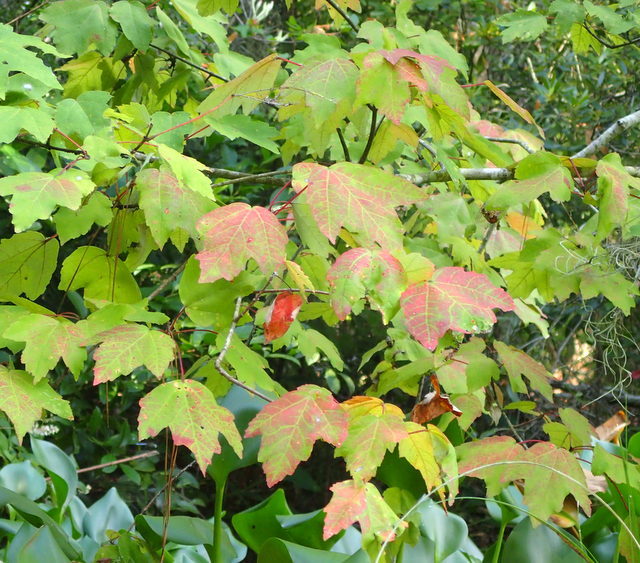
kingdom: Plantae
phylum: Tracheophyta
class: Magnoliopsida
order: Sapindales
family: Sapindaceae
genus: Acer
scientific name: Acer rubrum
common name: Red maple
